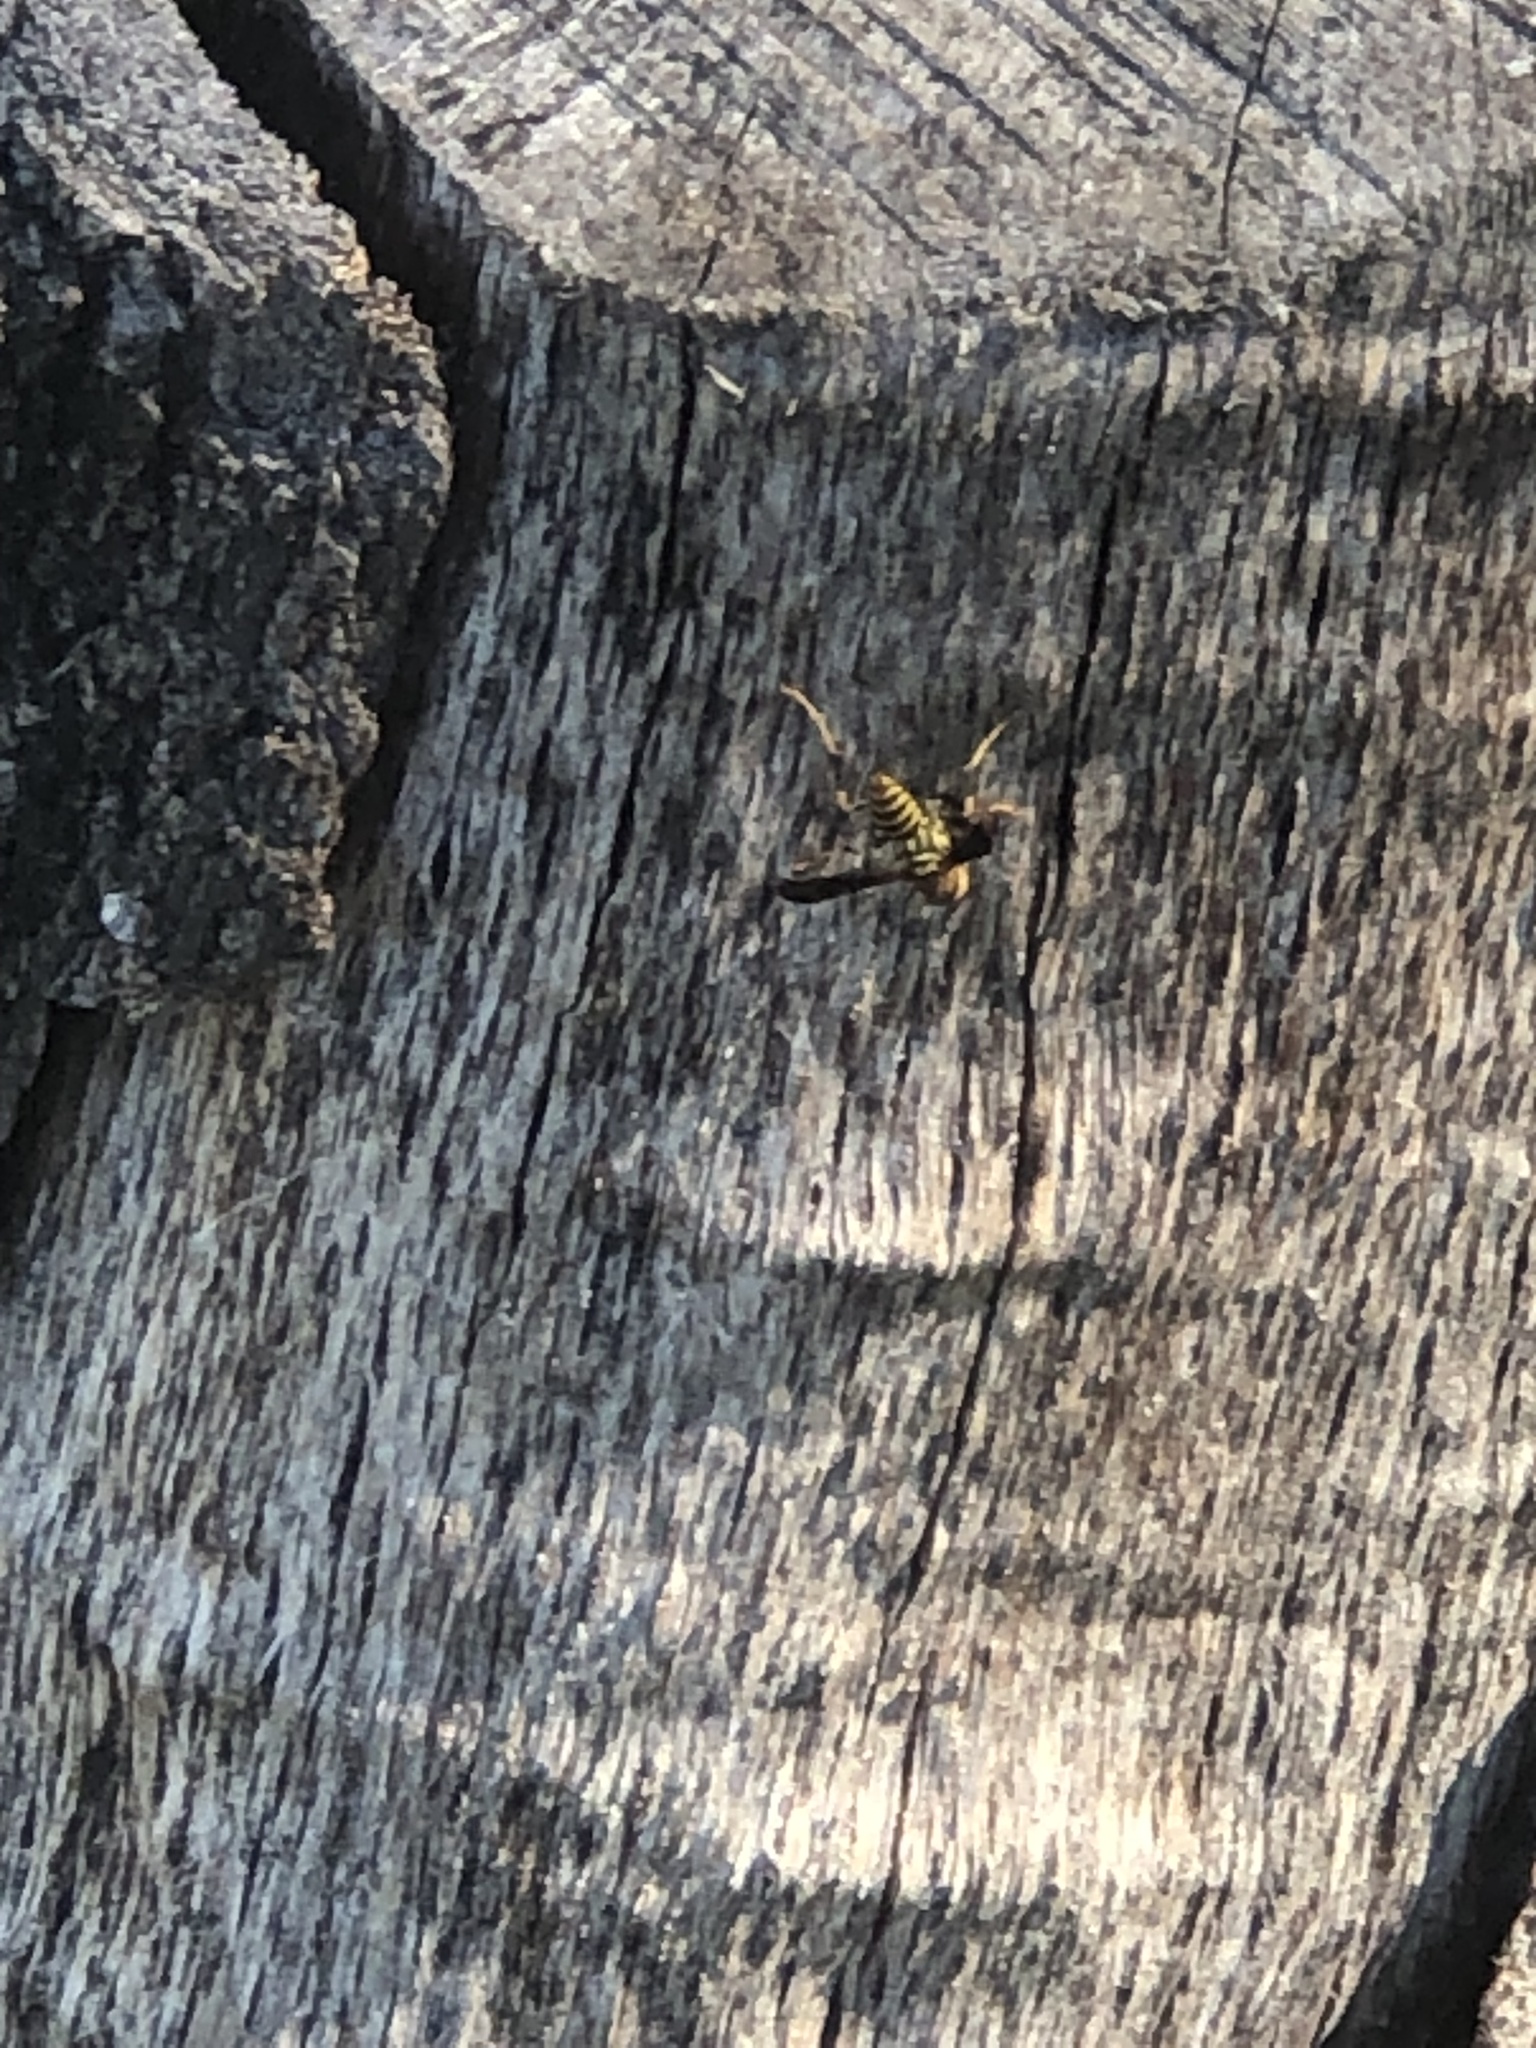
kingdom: Animalia
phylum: Arthropoda
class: Insecta
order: Hymenoptera
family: Eumenidae
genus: Polistes
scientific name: Polistes exclamans
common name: Paper wasp
